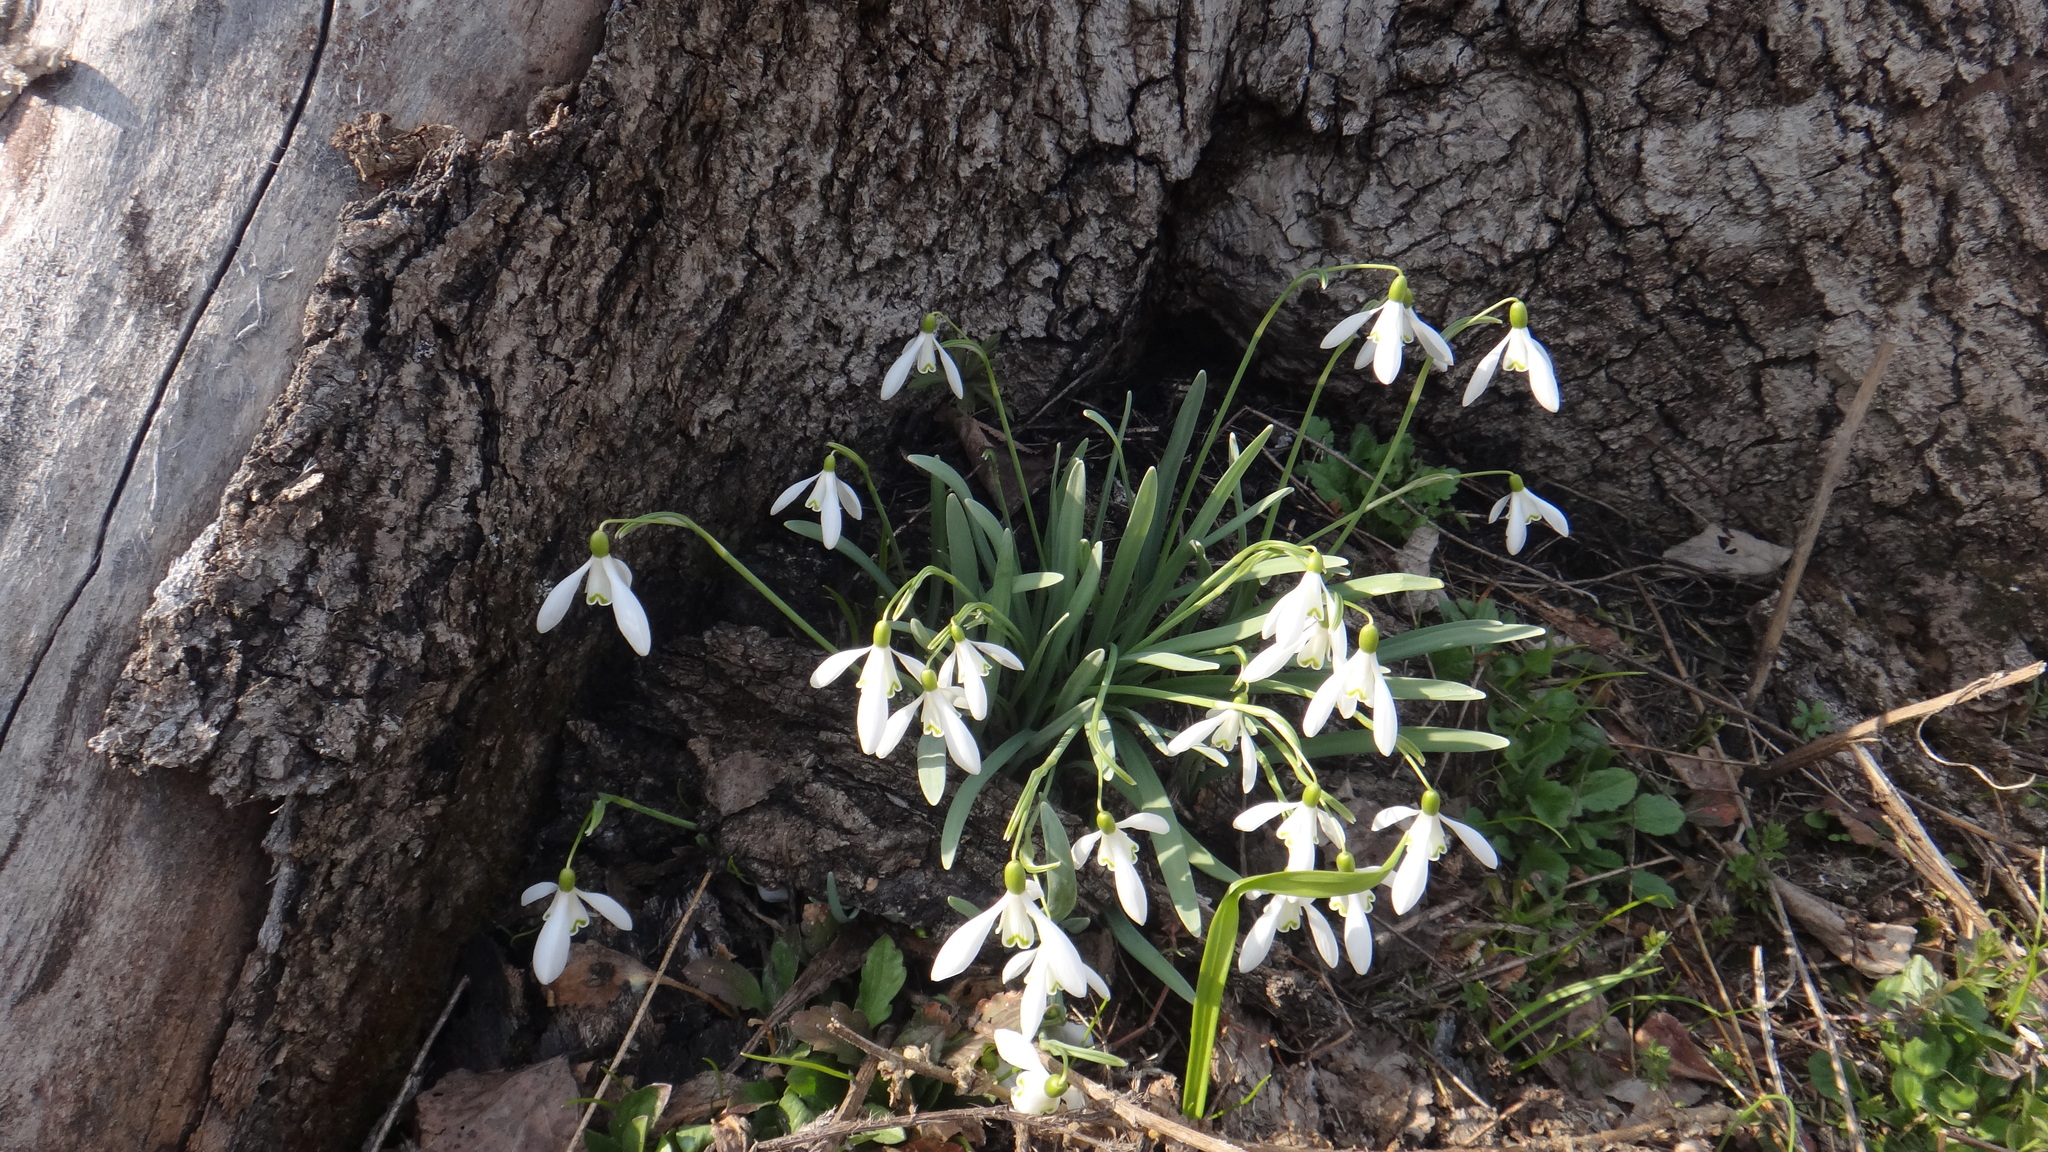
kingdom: Plantae
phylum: Tracheophyta
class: Liliopsida
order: Asparagales
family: Amaryllidaceae
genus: Galanthus
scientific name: Galanthus nivalis
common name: Snowdrop
